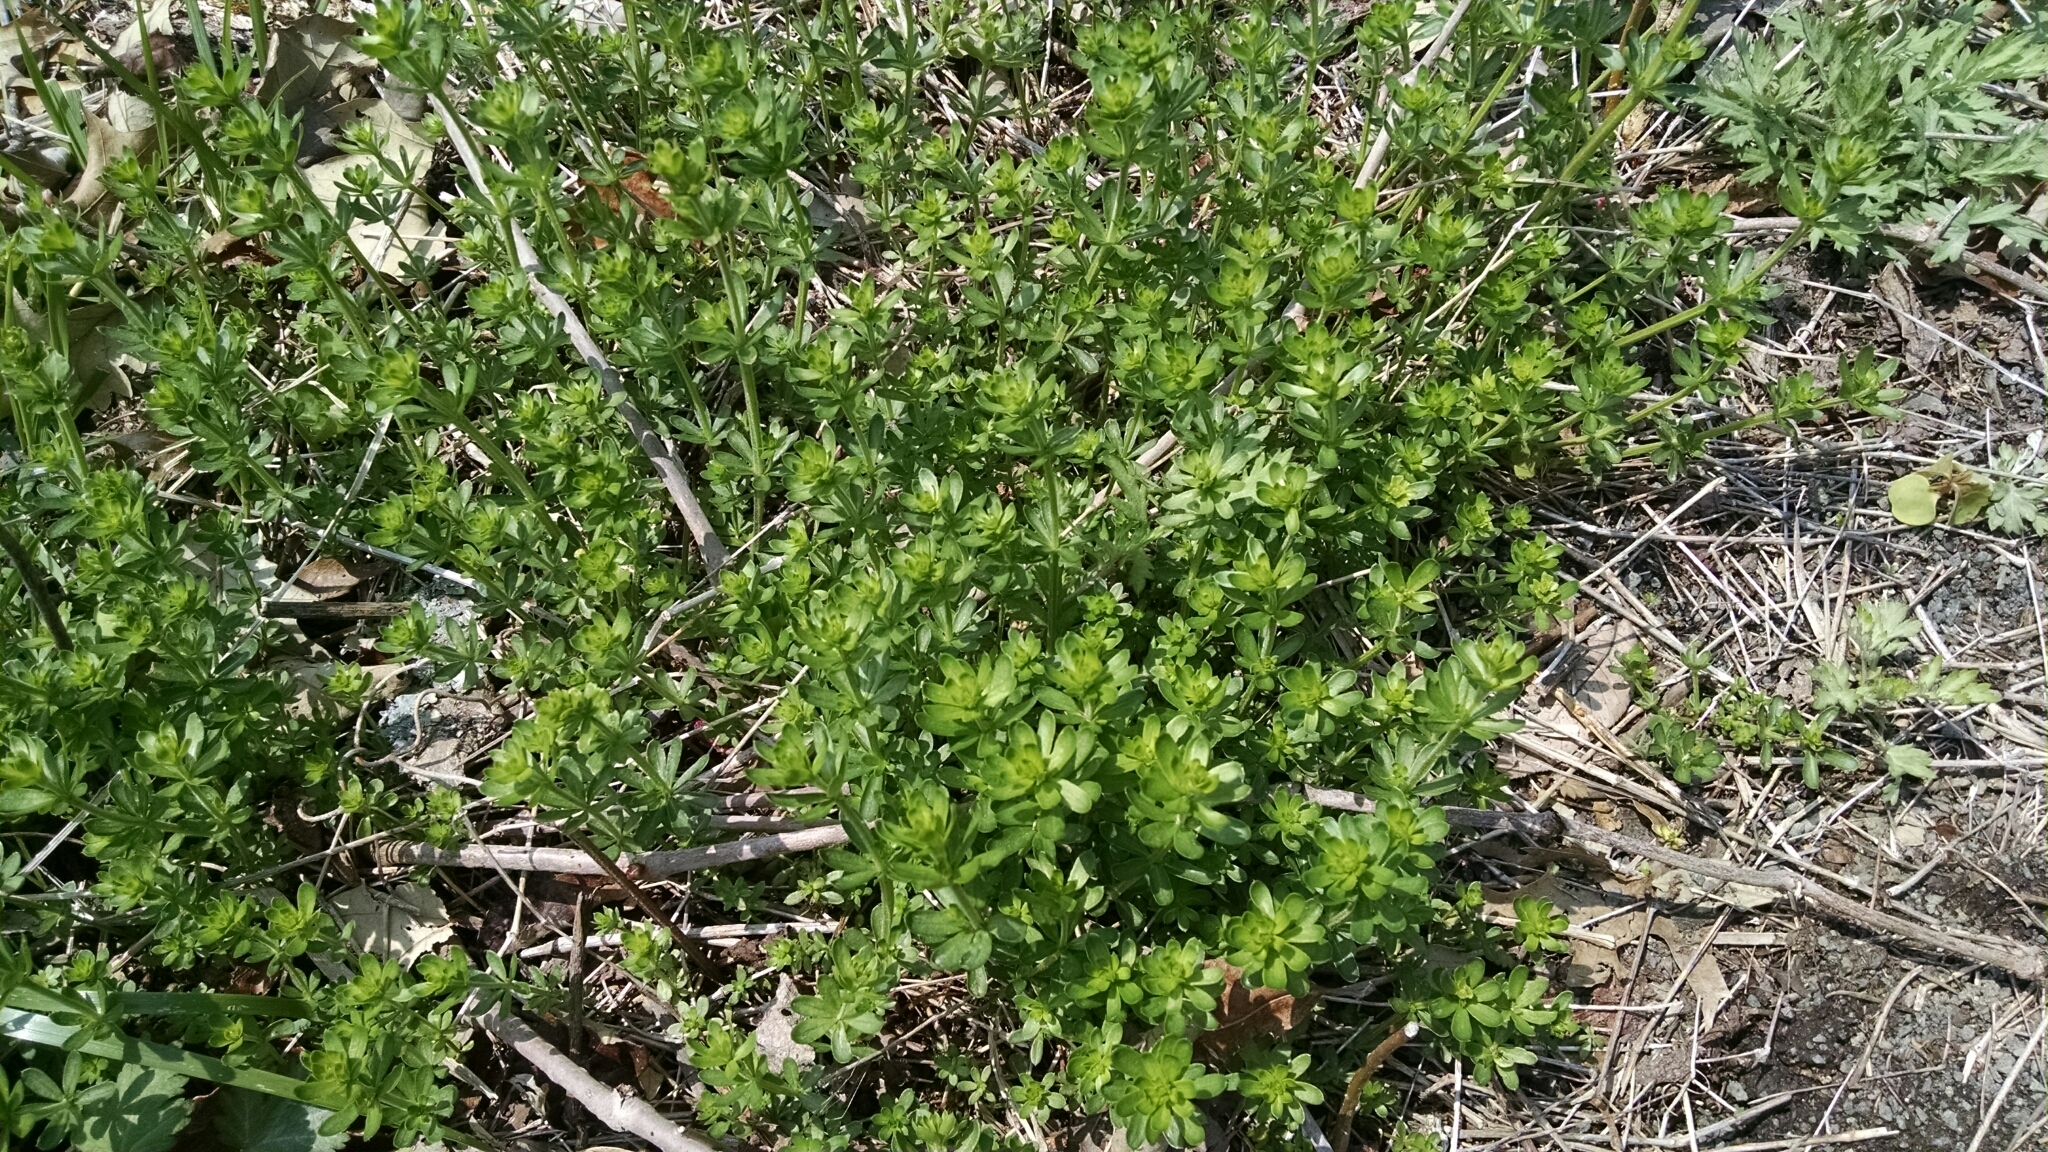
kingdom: Plantae
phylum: Tracheophyta
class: Magnoliopsida
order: Gentianales
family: Rubiaceae
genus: Galium
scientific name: Galium mollugo
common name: Hedge bedstraw
